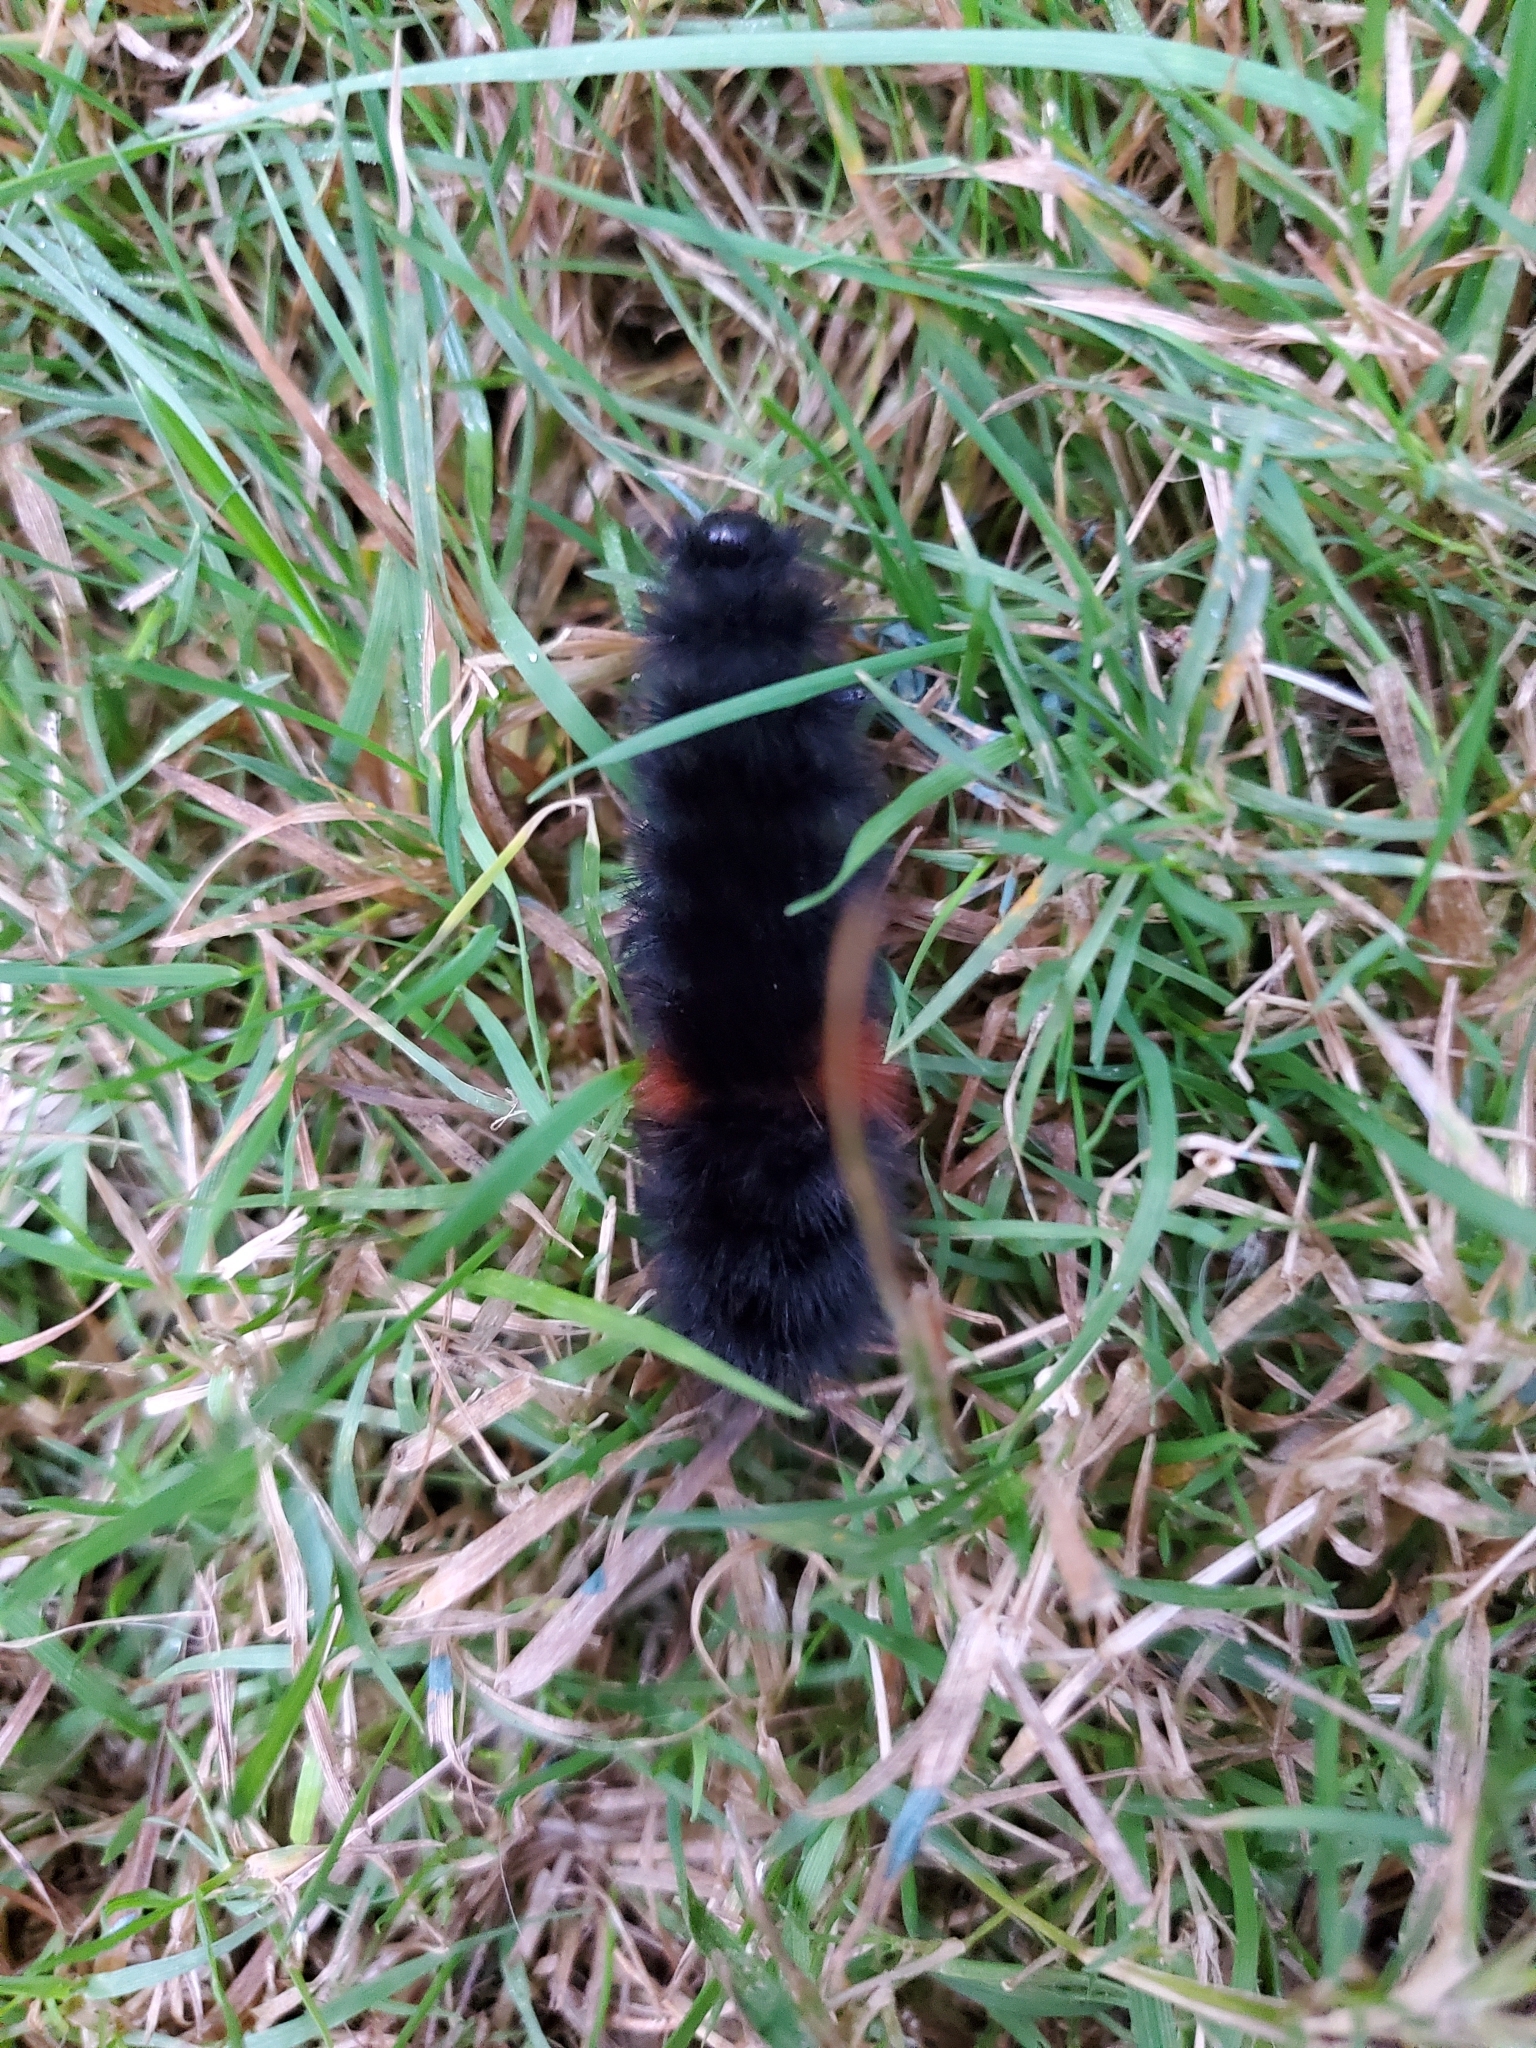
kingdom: Animalia
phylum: Arthropoda
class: Insecta
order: Lepidoptera
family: Erebidae
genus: Pyrrharctia
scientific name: Pyrrharctia isabella
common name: Isabella tiger moth
